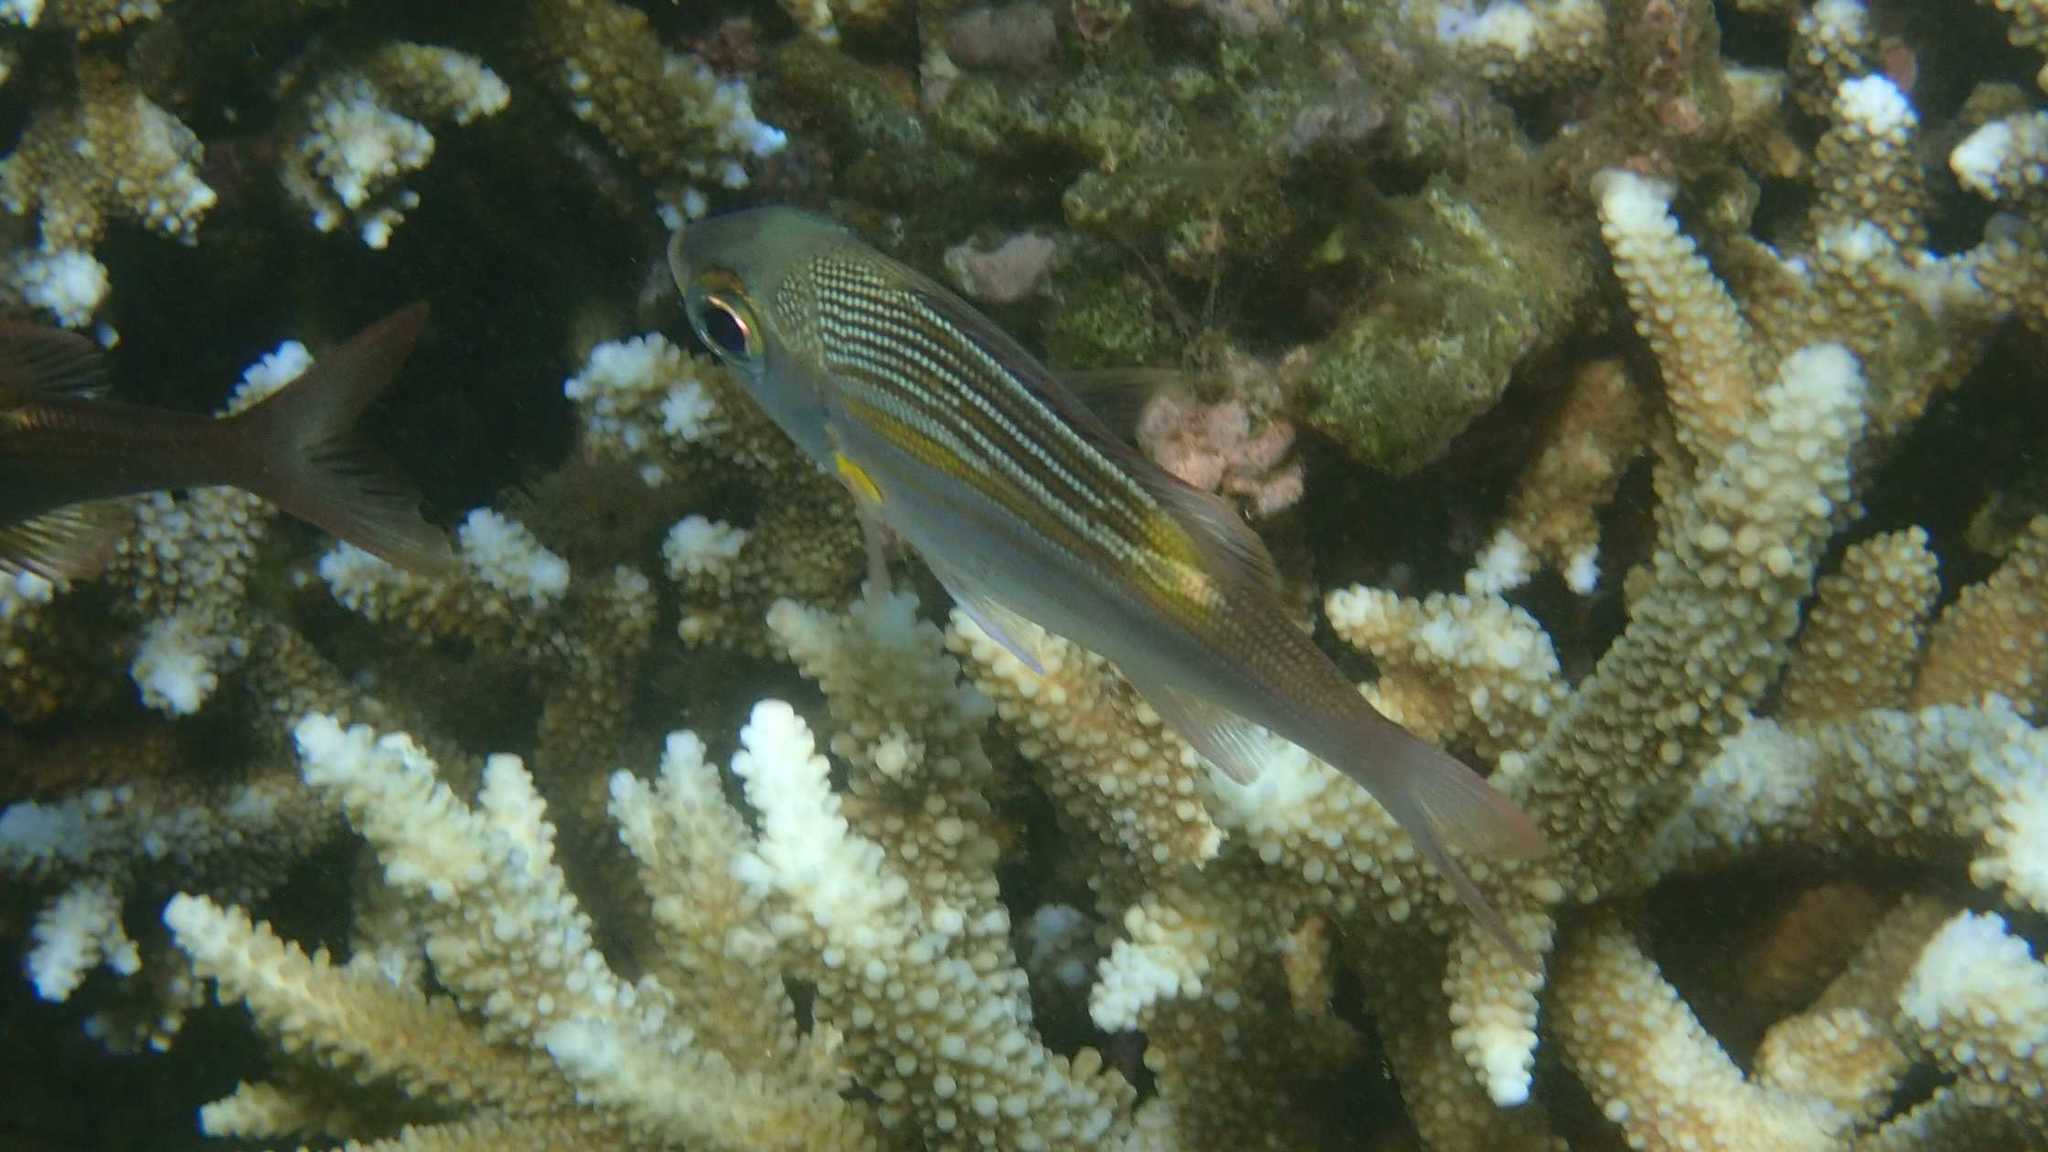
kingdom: Animalia
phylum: Chordata
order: Perciformes
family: Lethrinidae
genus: Gnathodentex
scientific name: Gnathodentex aureolineatus
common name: Gold-lined sea bream
